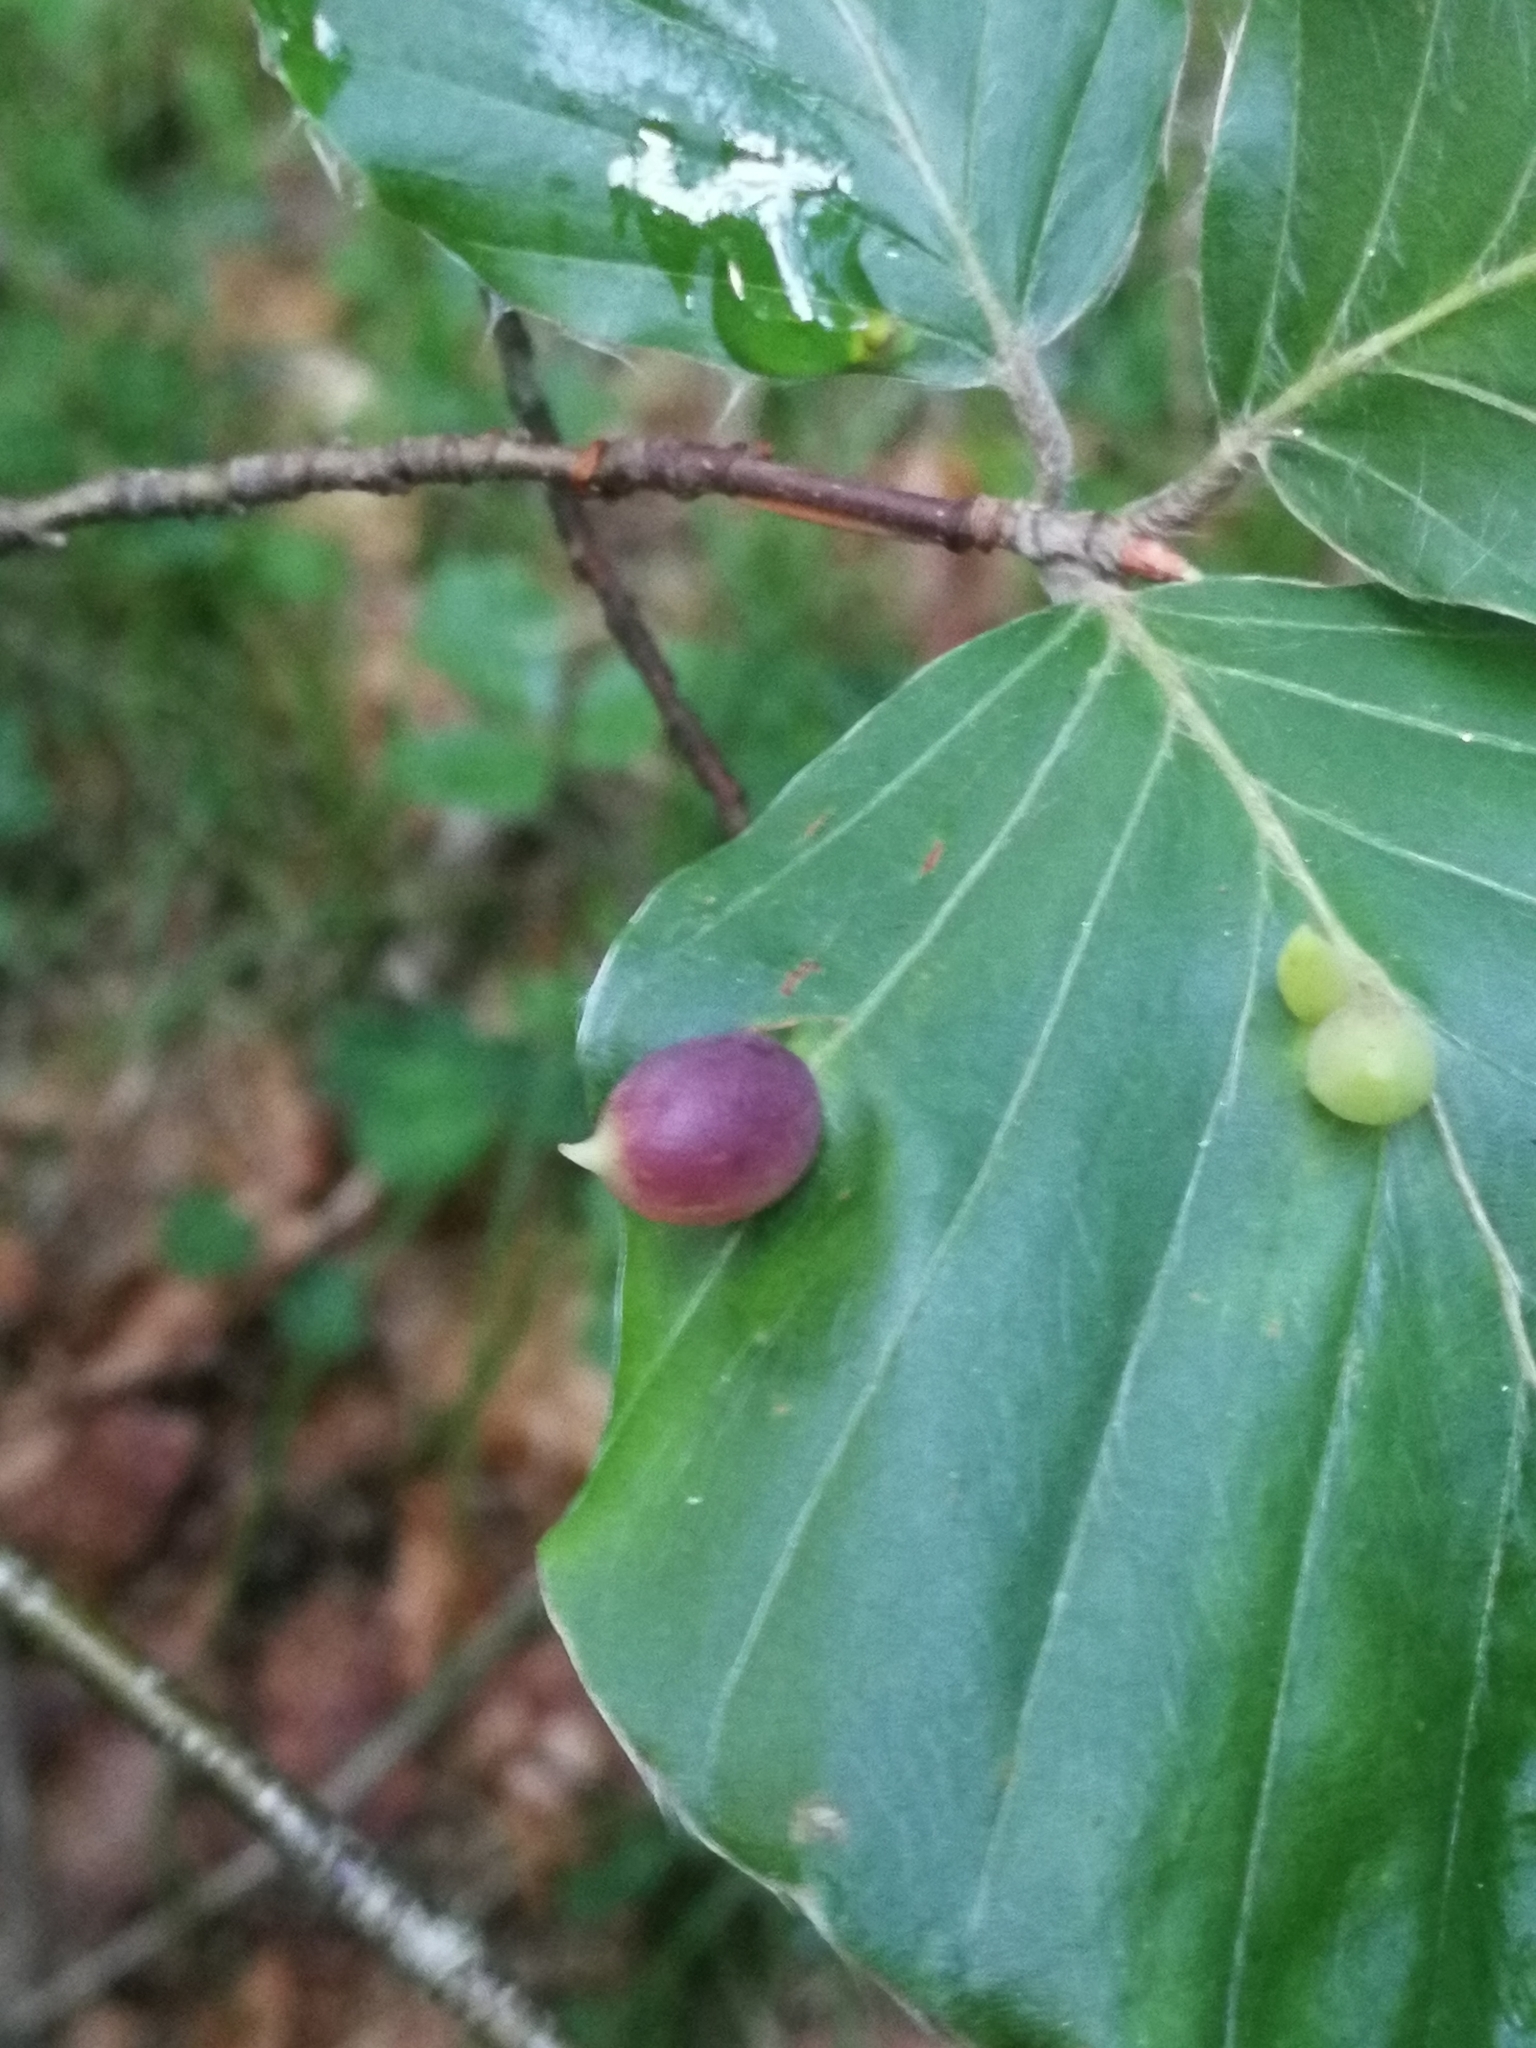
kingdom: Animalia
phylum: Arthropoda
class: Insecta
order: Diptera
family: Cecidomyiidae
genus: Mikiola
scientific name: Mikiola fagi
